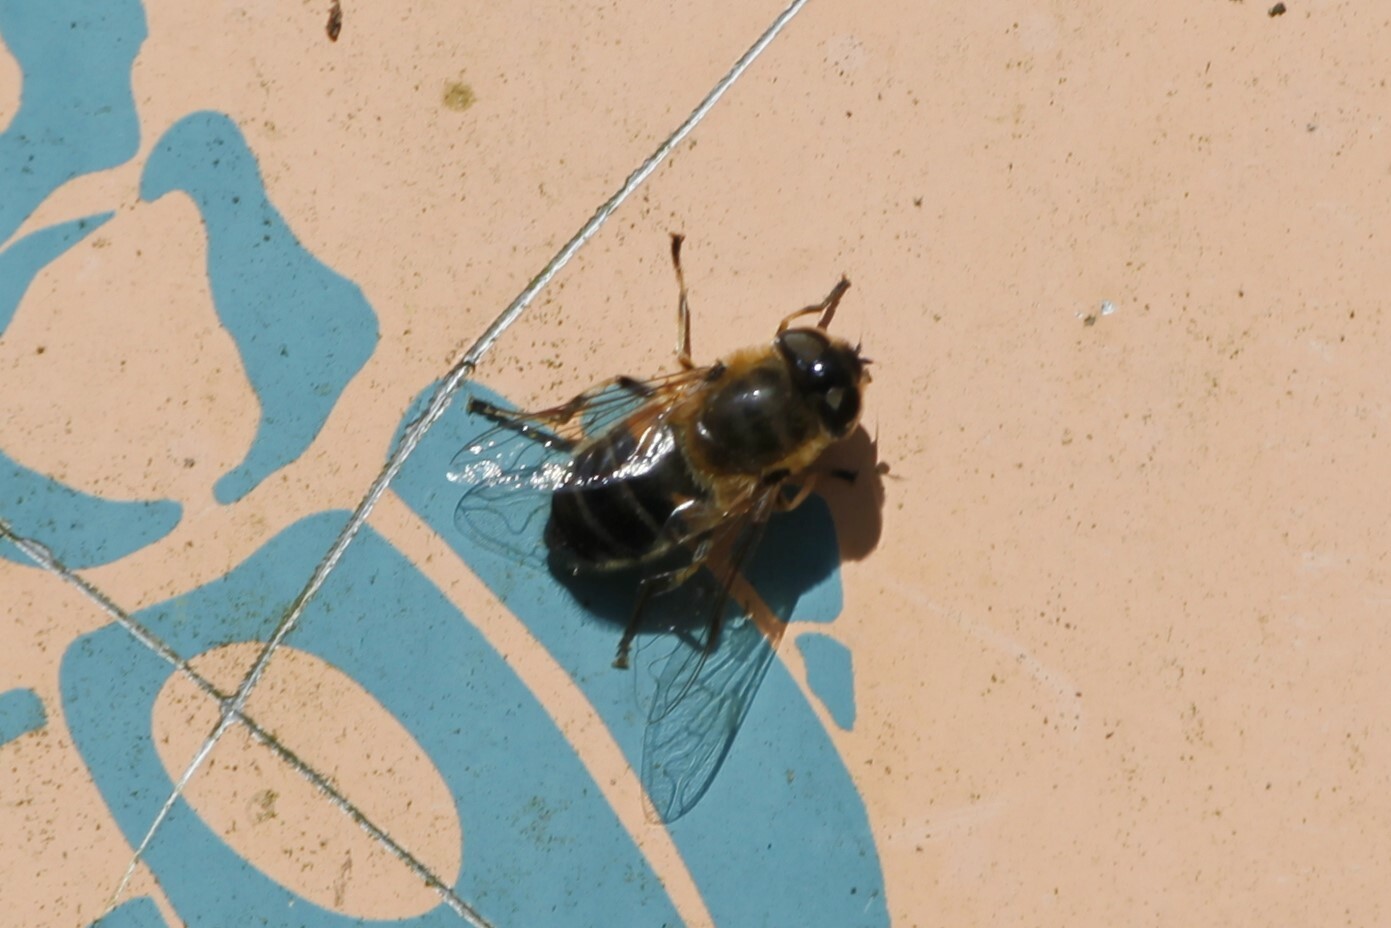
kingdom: Animalia
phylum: Arthropoda
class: Insecta
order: Diptera
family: Syrphidae
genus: Eristalis
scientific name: Eristalis pertinax
